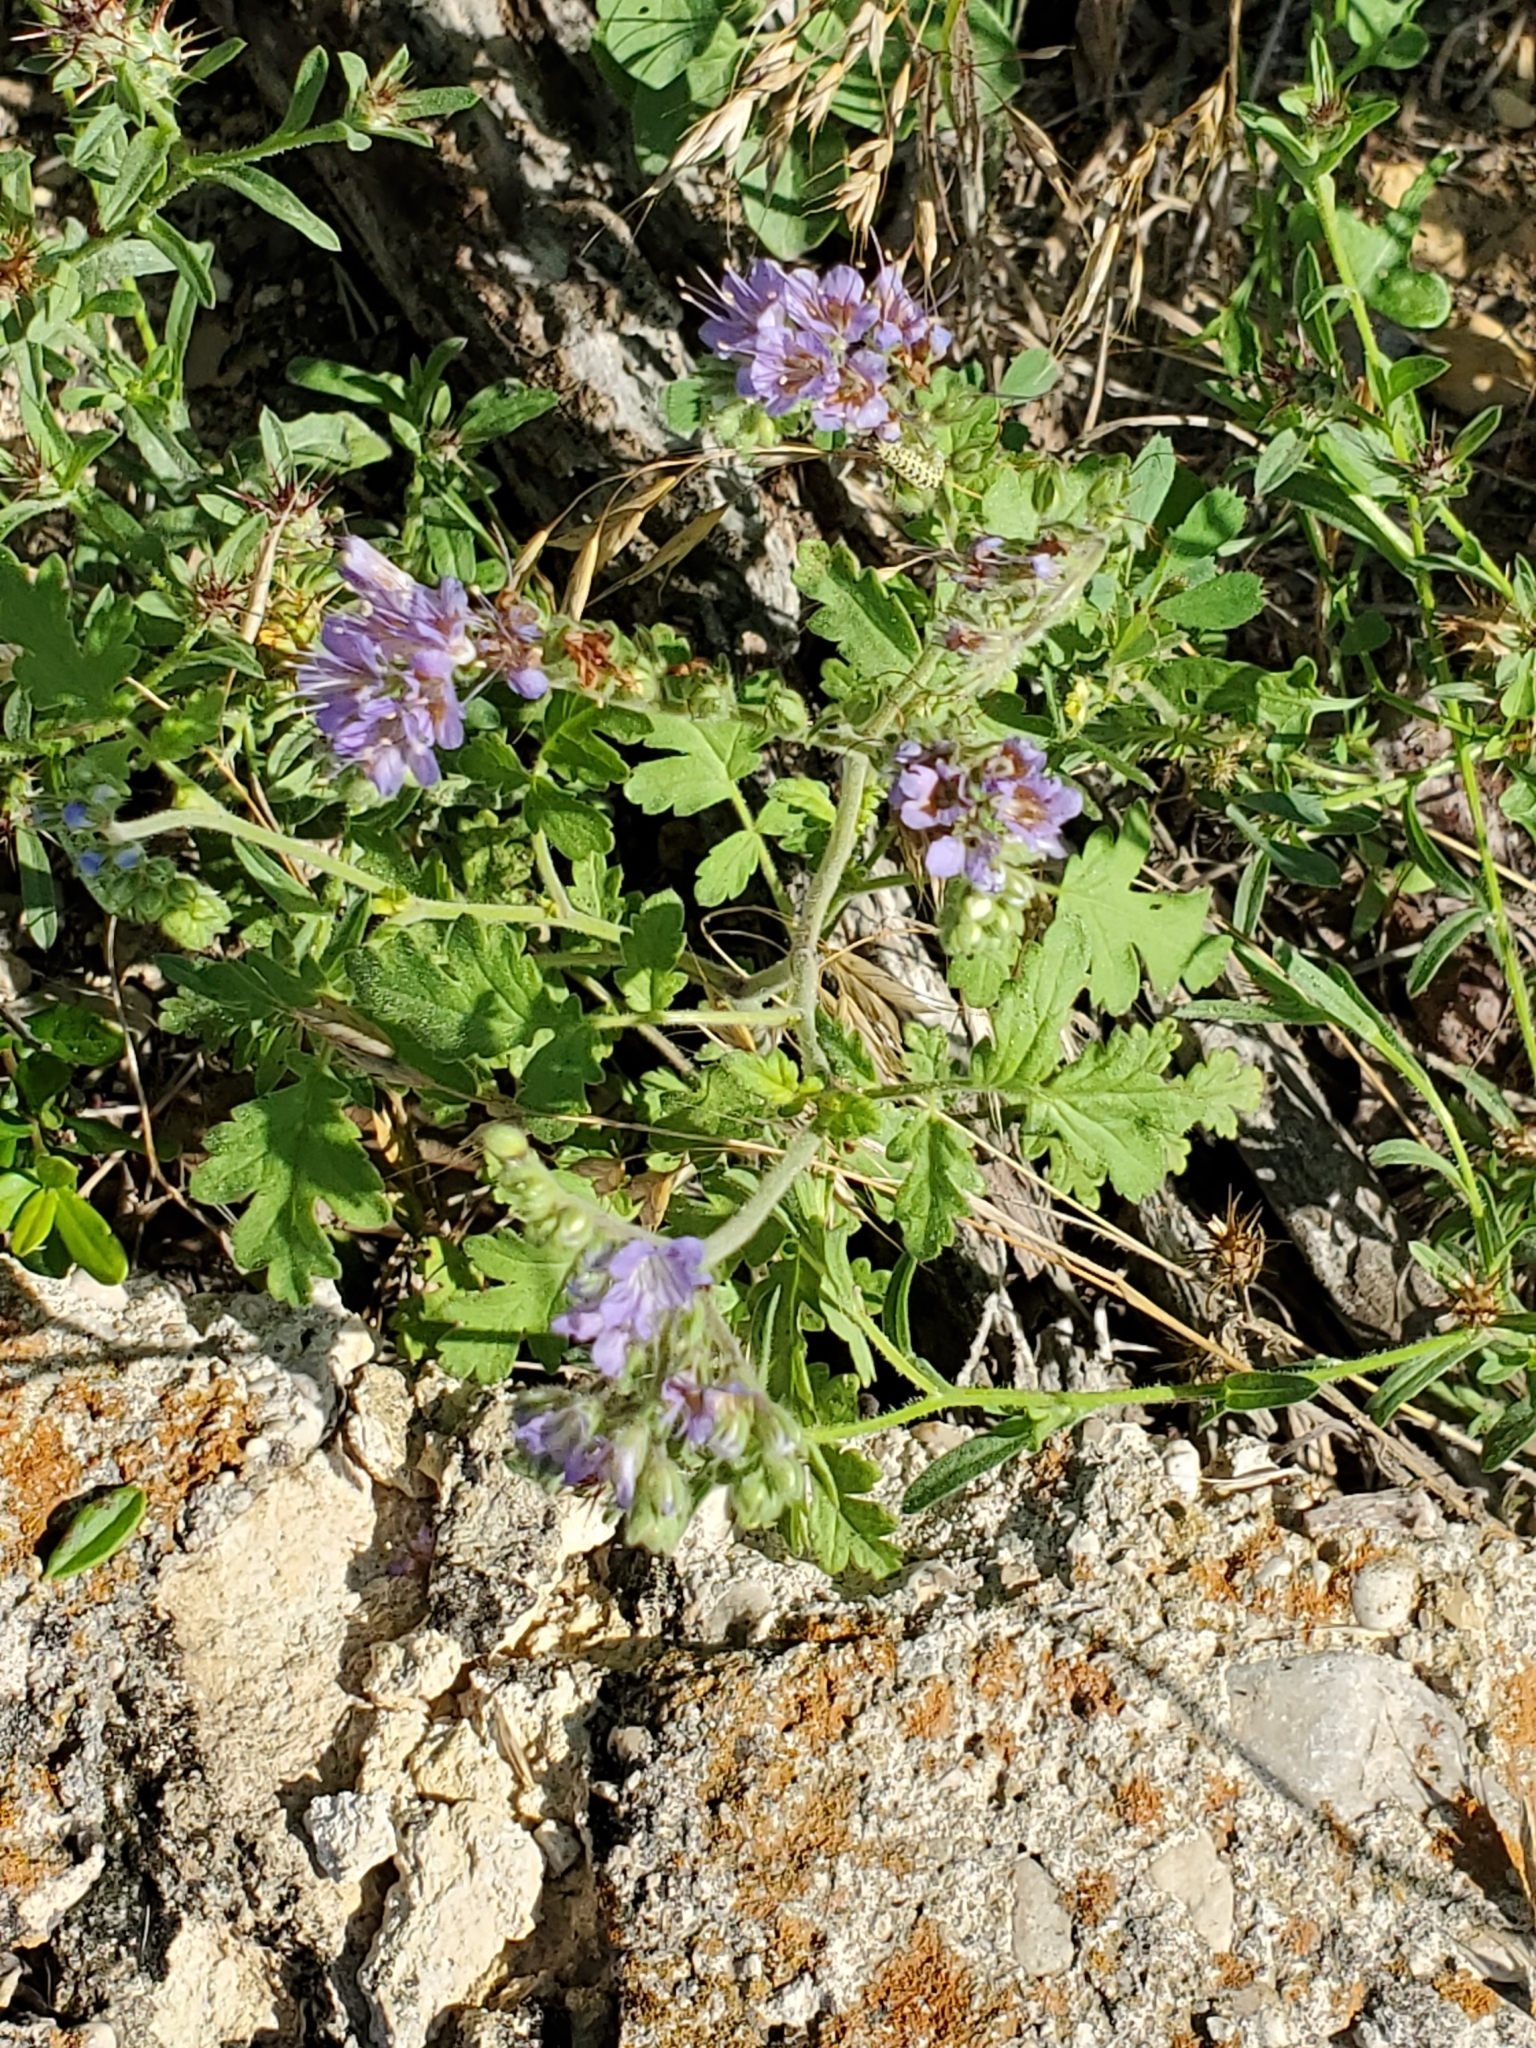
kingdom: Plantae
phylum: Tracheophyta
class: Magnoliopsida
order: Boraginales
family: Hydrophyllaceae
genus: Phacelia
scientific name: Phacelia congesta
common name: Blue curls
